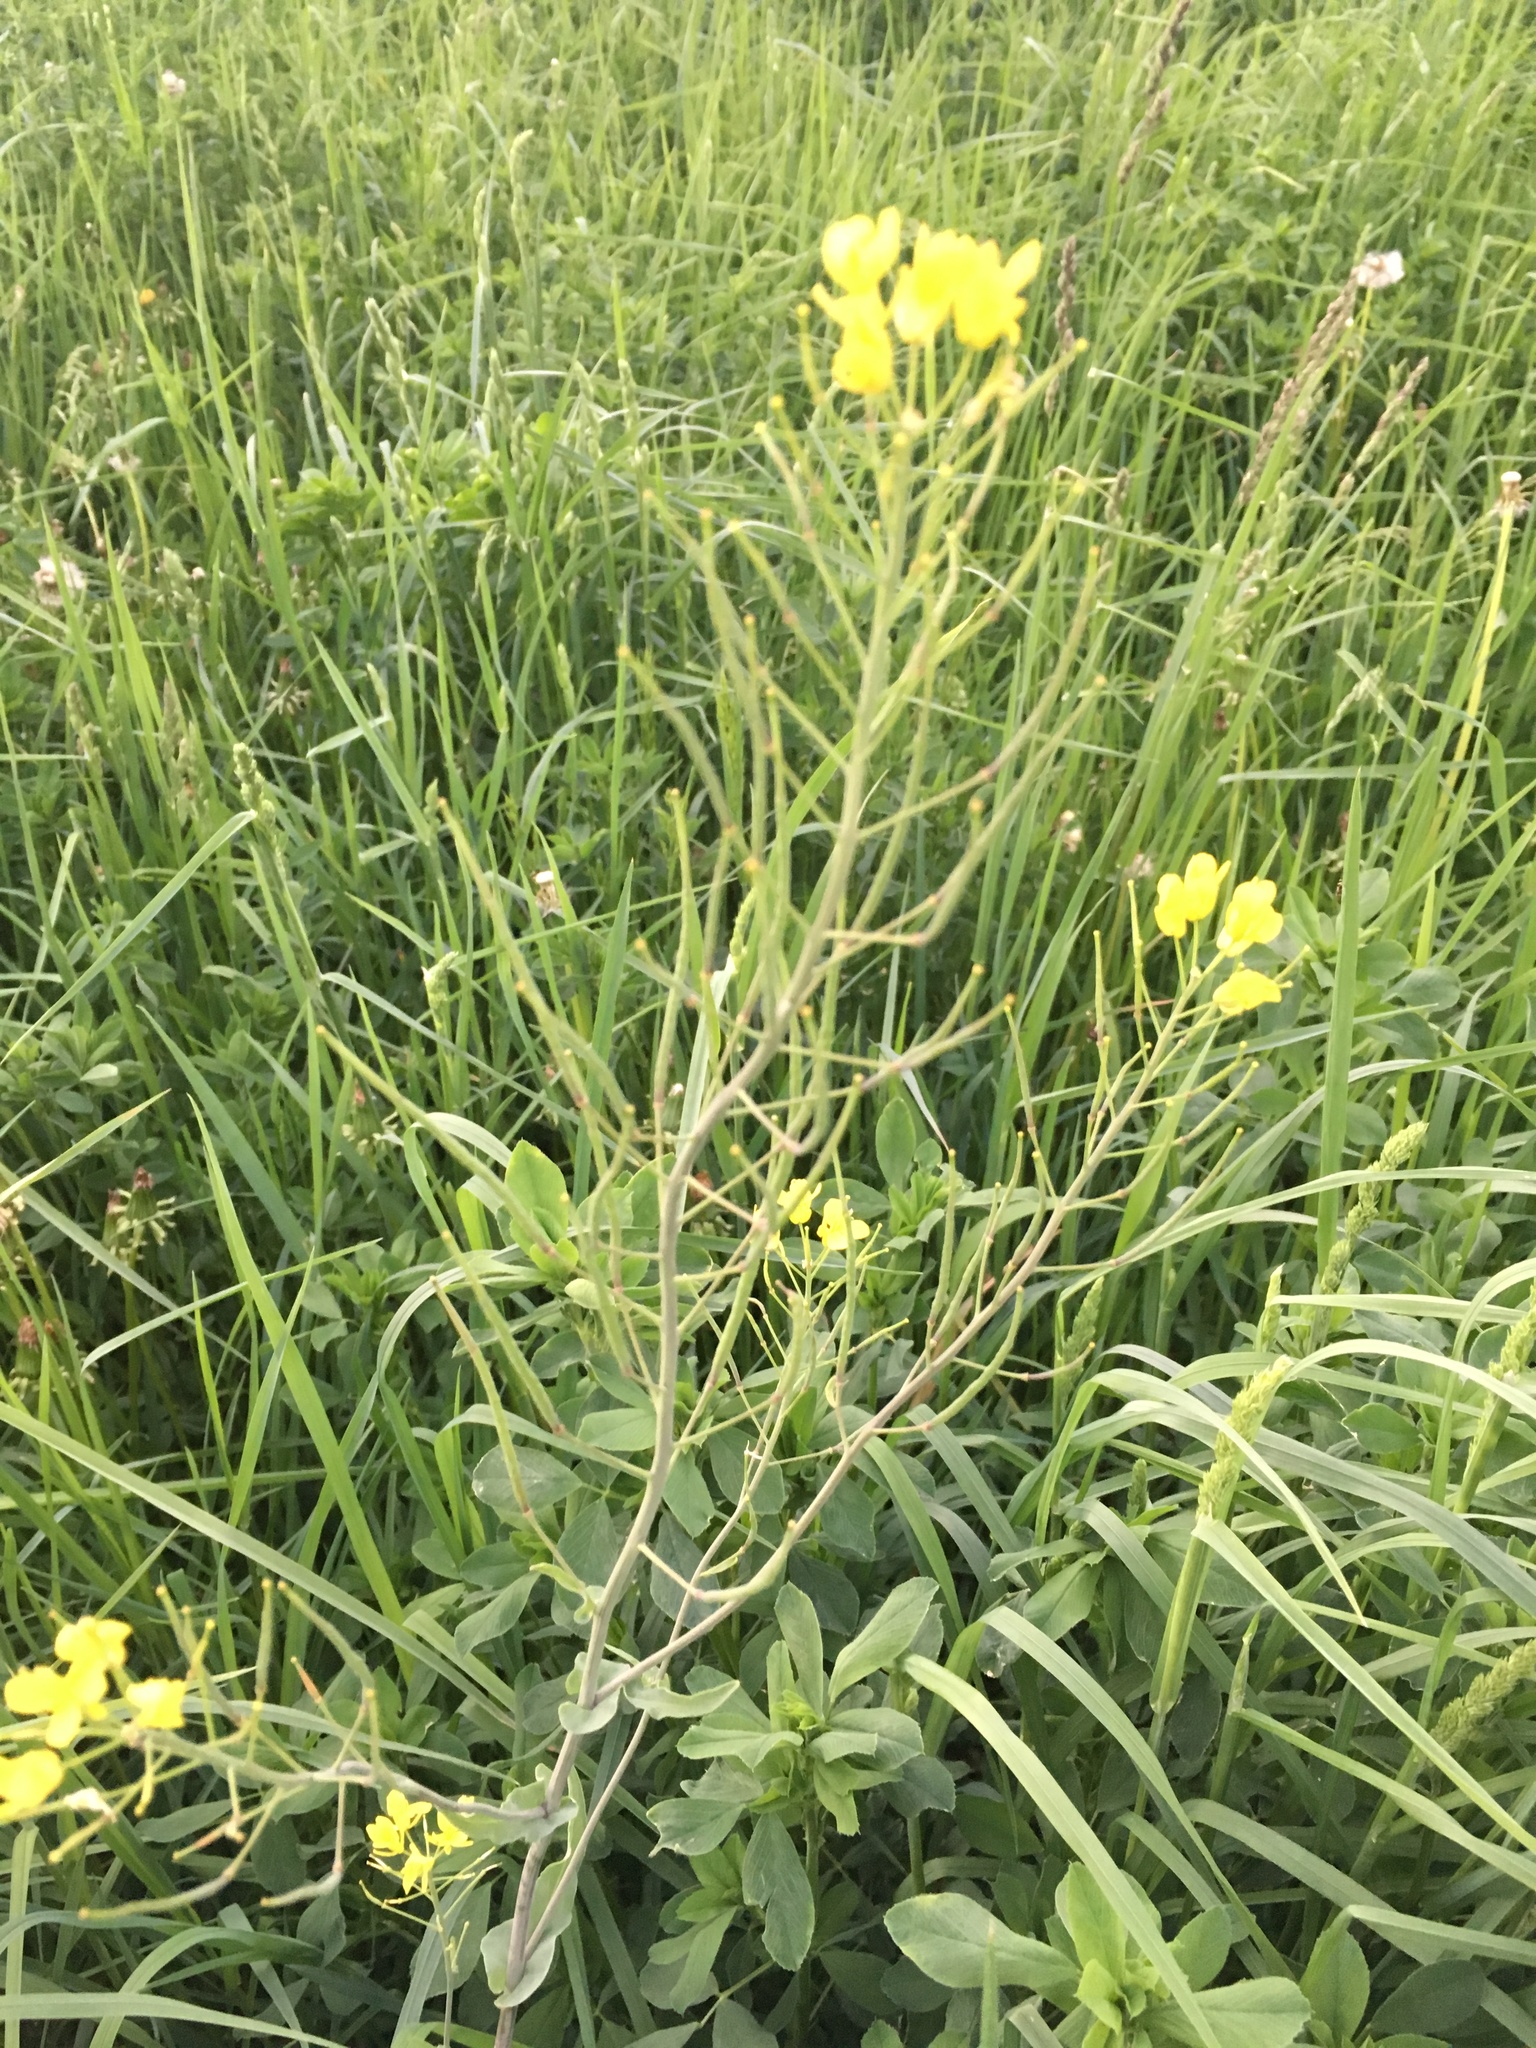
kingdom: Plantae
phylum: Tracheophyta
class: Magnoliopsida
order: Brassicales
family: Brassicaceae
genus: Brassica
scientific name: Brassica rapa
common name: Field mustard
